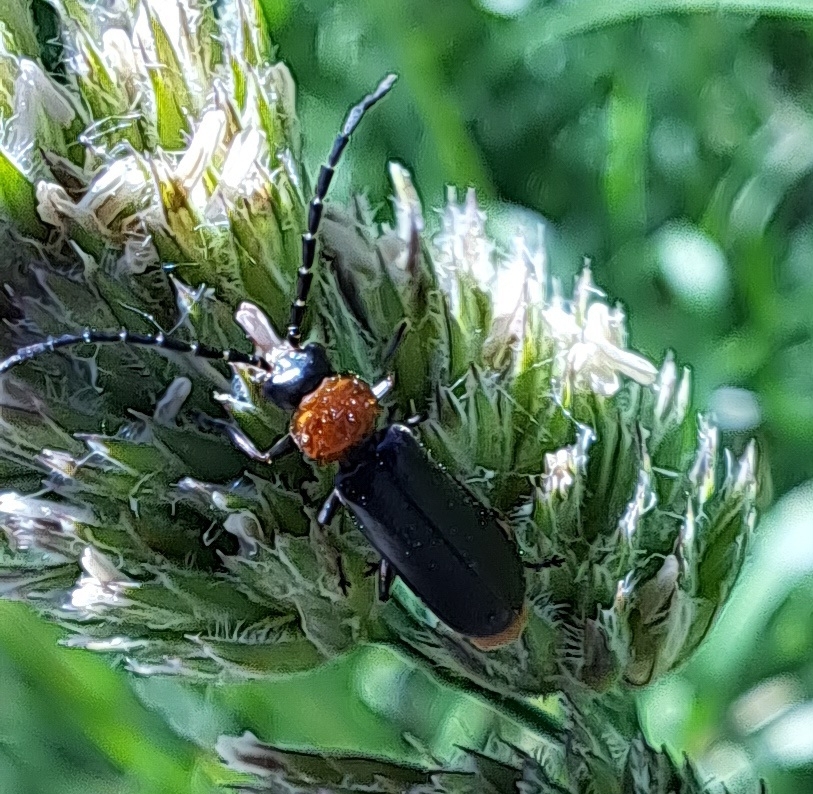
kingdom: Animalia
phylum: Arthropoda
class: Insecta
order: Coleoptera
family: Cantharidae
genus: Crudosilis
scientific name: Crudosilis ruficollis
